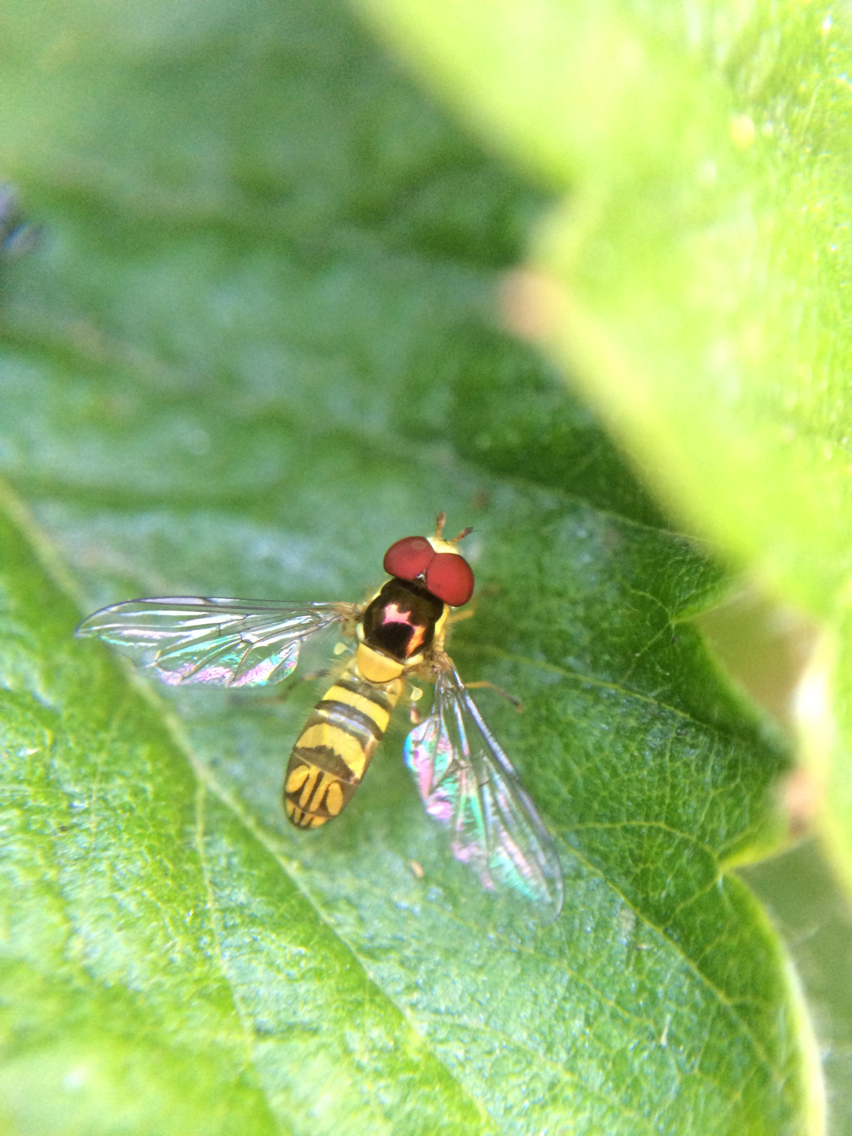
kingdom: Animalia
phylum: Arthropoda
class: Insecta
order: Diptera
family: Syrphidae
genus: Allograpta
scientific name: Allograpta obliqua
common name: Common oblique syrphid
